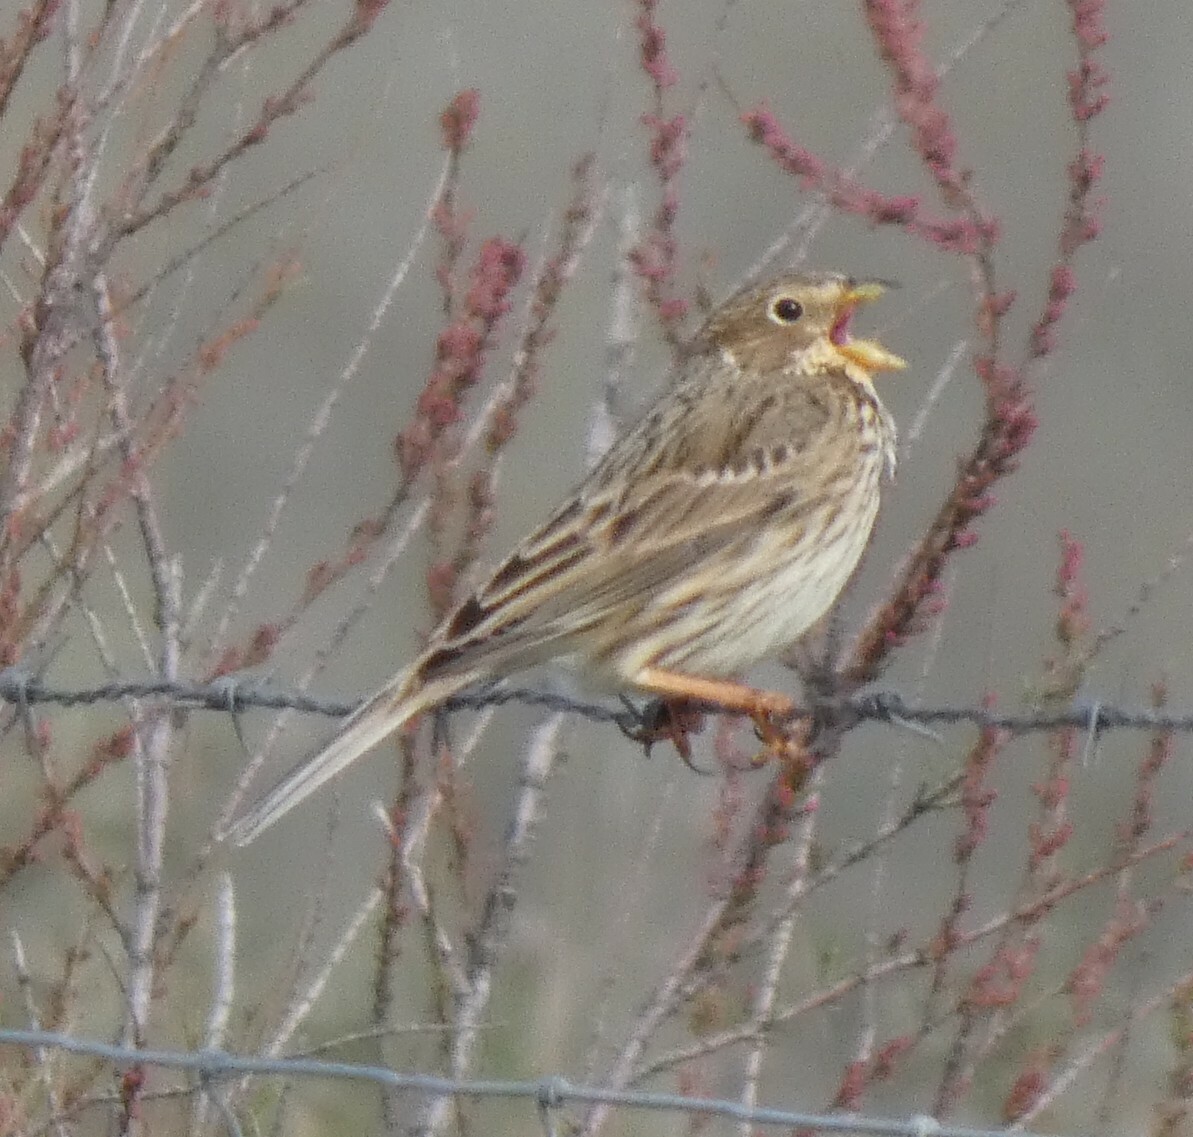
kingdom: Animalia
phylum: Chordata
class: Aves
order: Passeriformes
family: Emberizidae
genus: Emberiza
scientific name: Emberiza calandra
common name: Corn bunting
